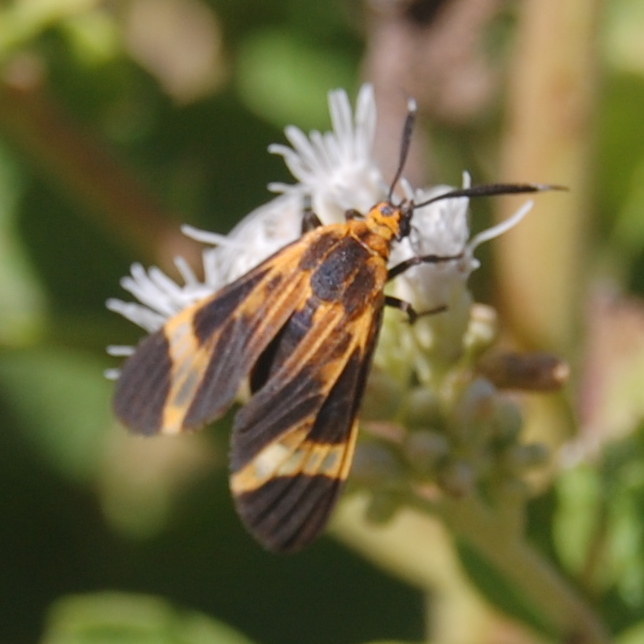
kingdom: Animalia
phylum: Arthropoda
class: Insecta
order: Lepidoptera
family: Erebidae
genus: Dycladia
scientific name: Dycladia lucetius
